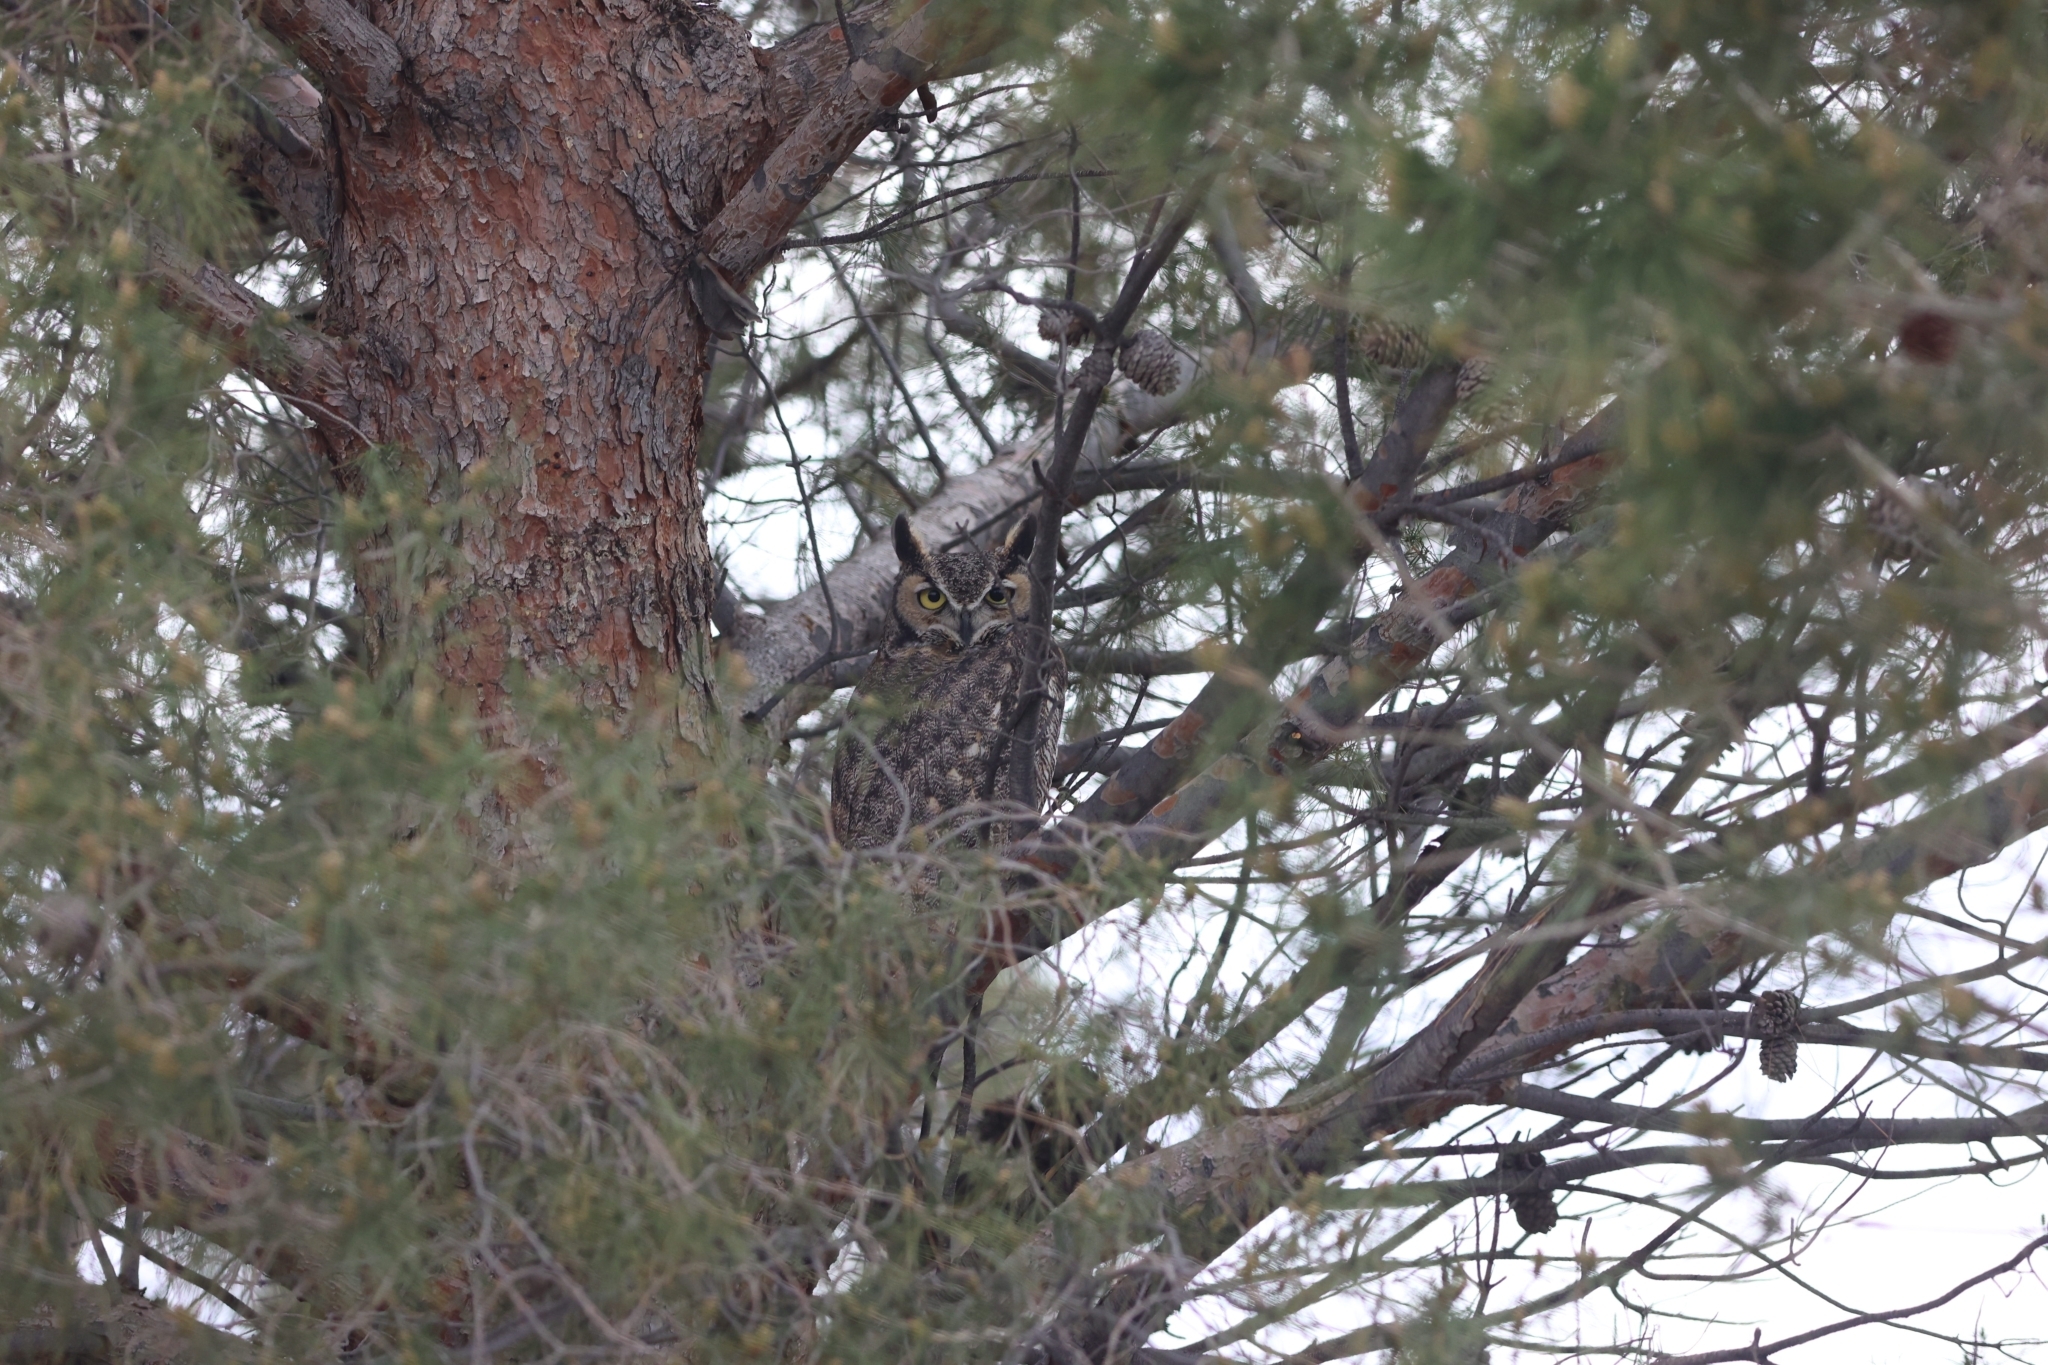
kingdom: Animalia
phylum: Chordata
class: Aves
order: Strigiformes
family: Strigidae
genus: Bubo
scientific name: Bubo virginianus
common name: Great horned owl
